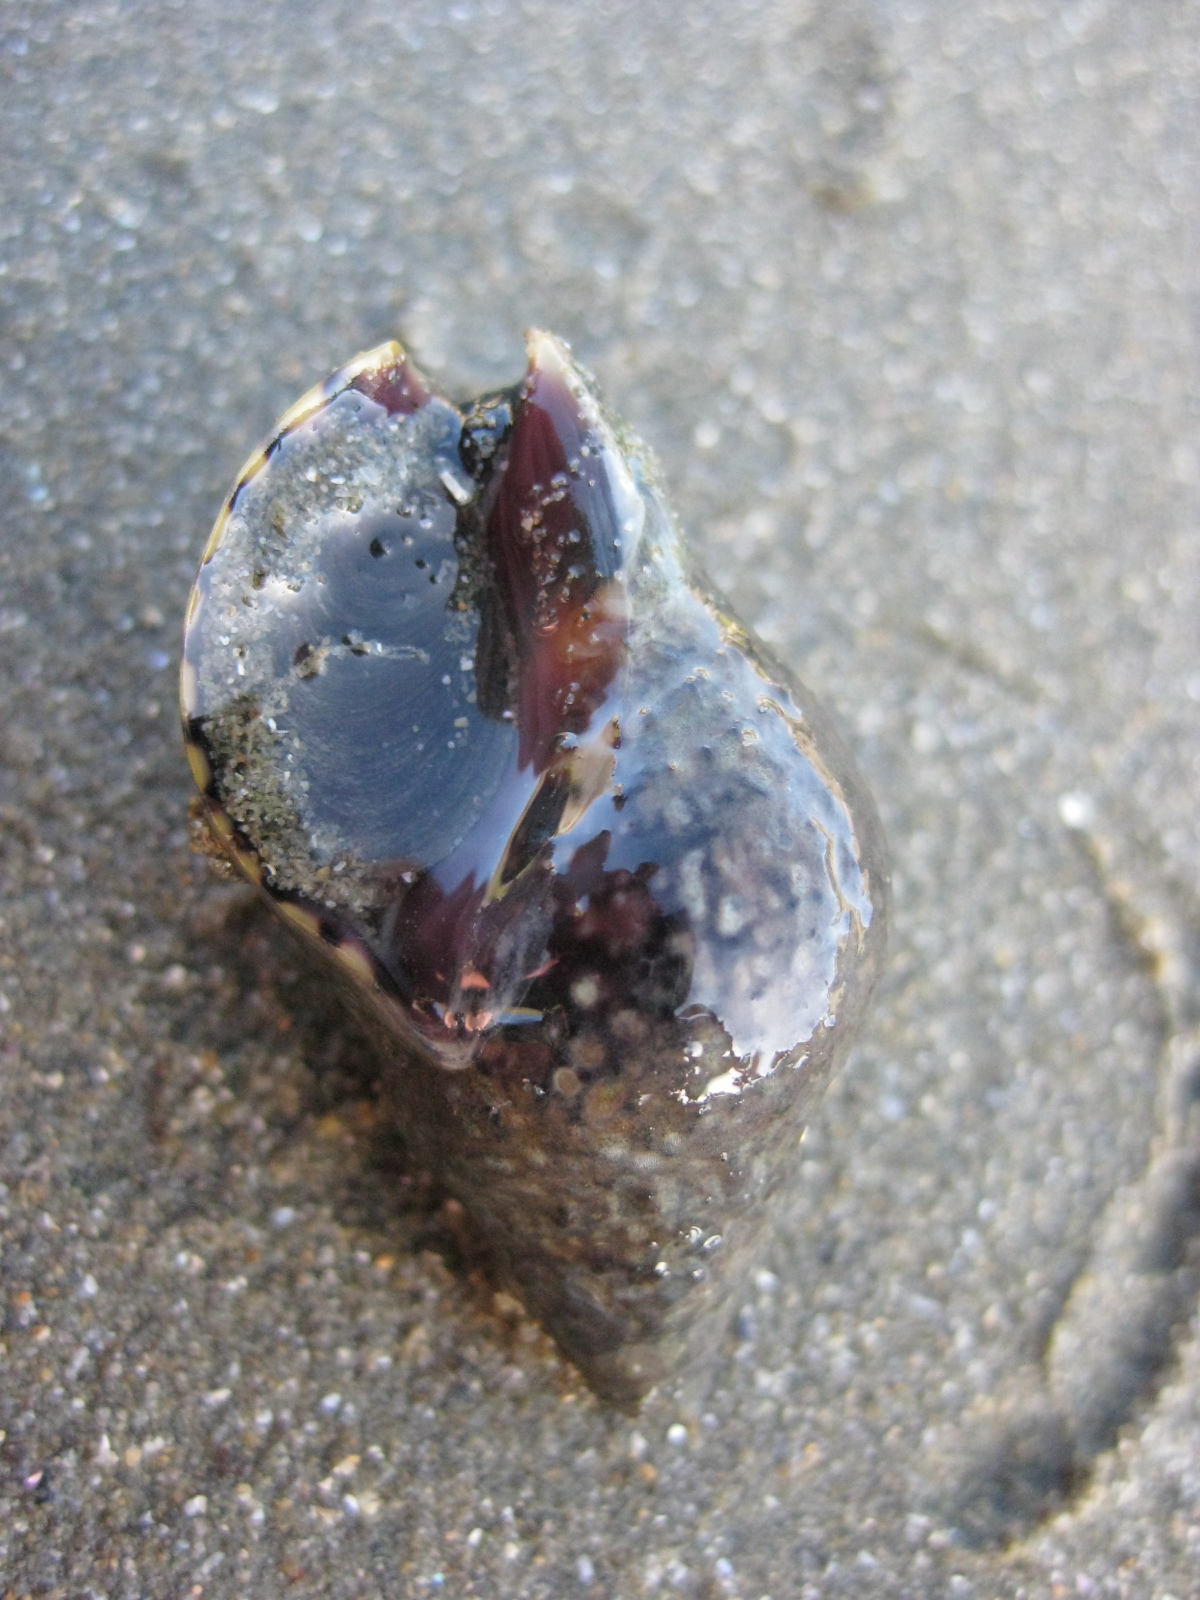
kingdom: Animalia
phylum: Mollusca
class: Gastropoda
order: Neogastropoda
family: Cominellidae
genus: Cominella
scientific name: Cominella maculosa
